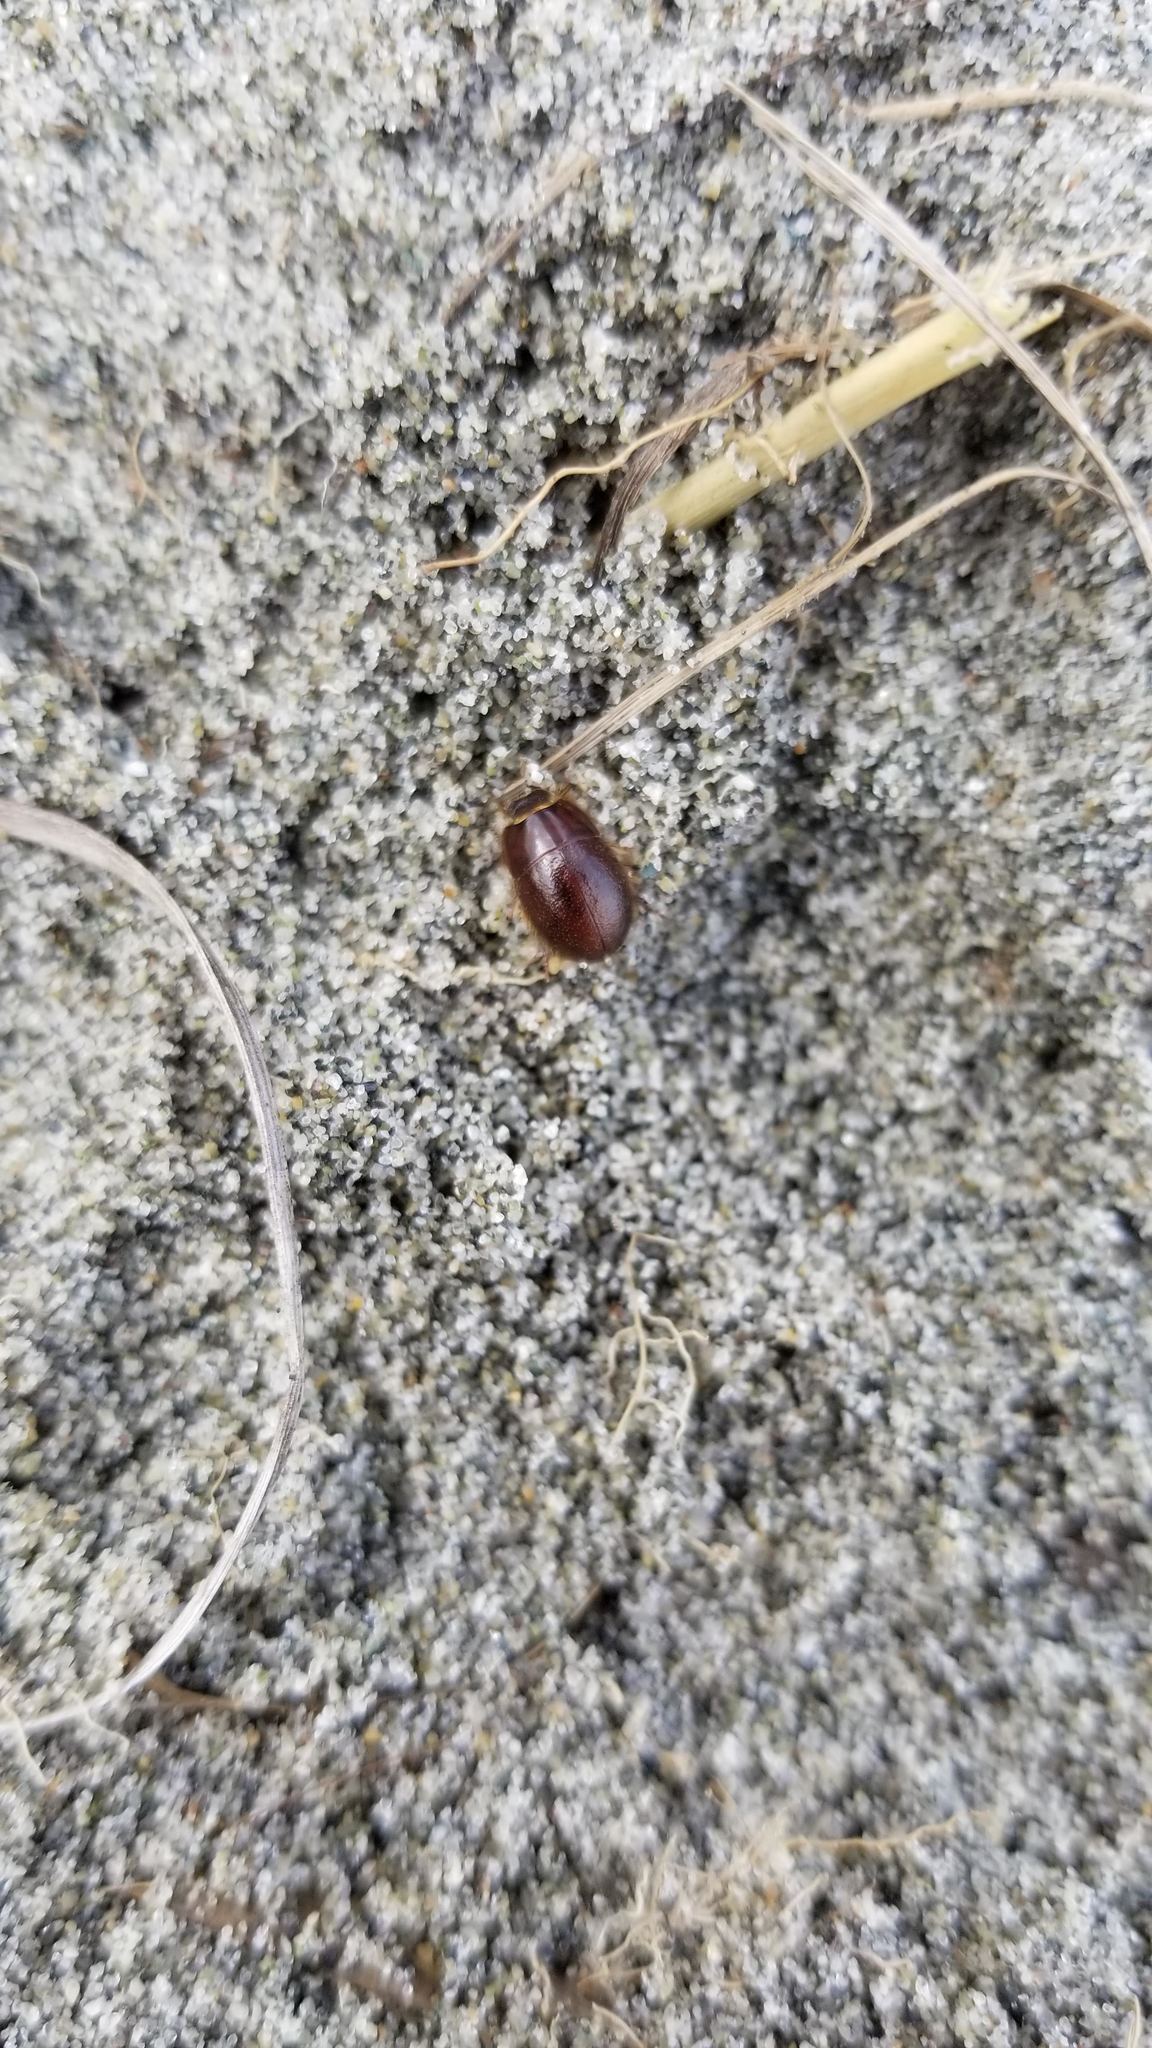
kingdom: Animalia
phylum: Arthropoda
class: Insecta
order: Coleoptera
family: Tenebrionidae
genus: Coelus
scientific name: Coelus ciliatus
